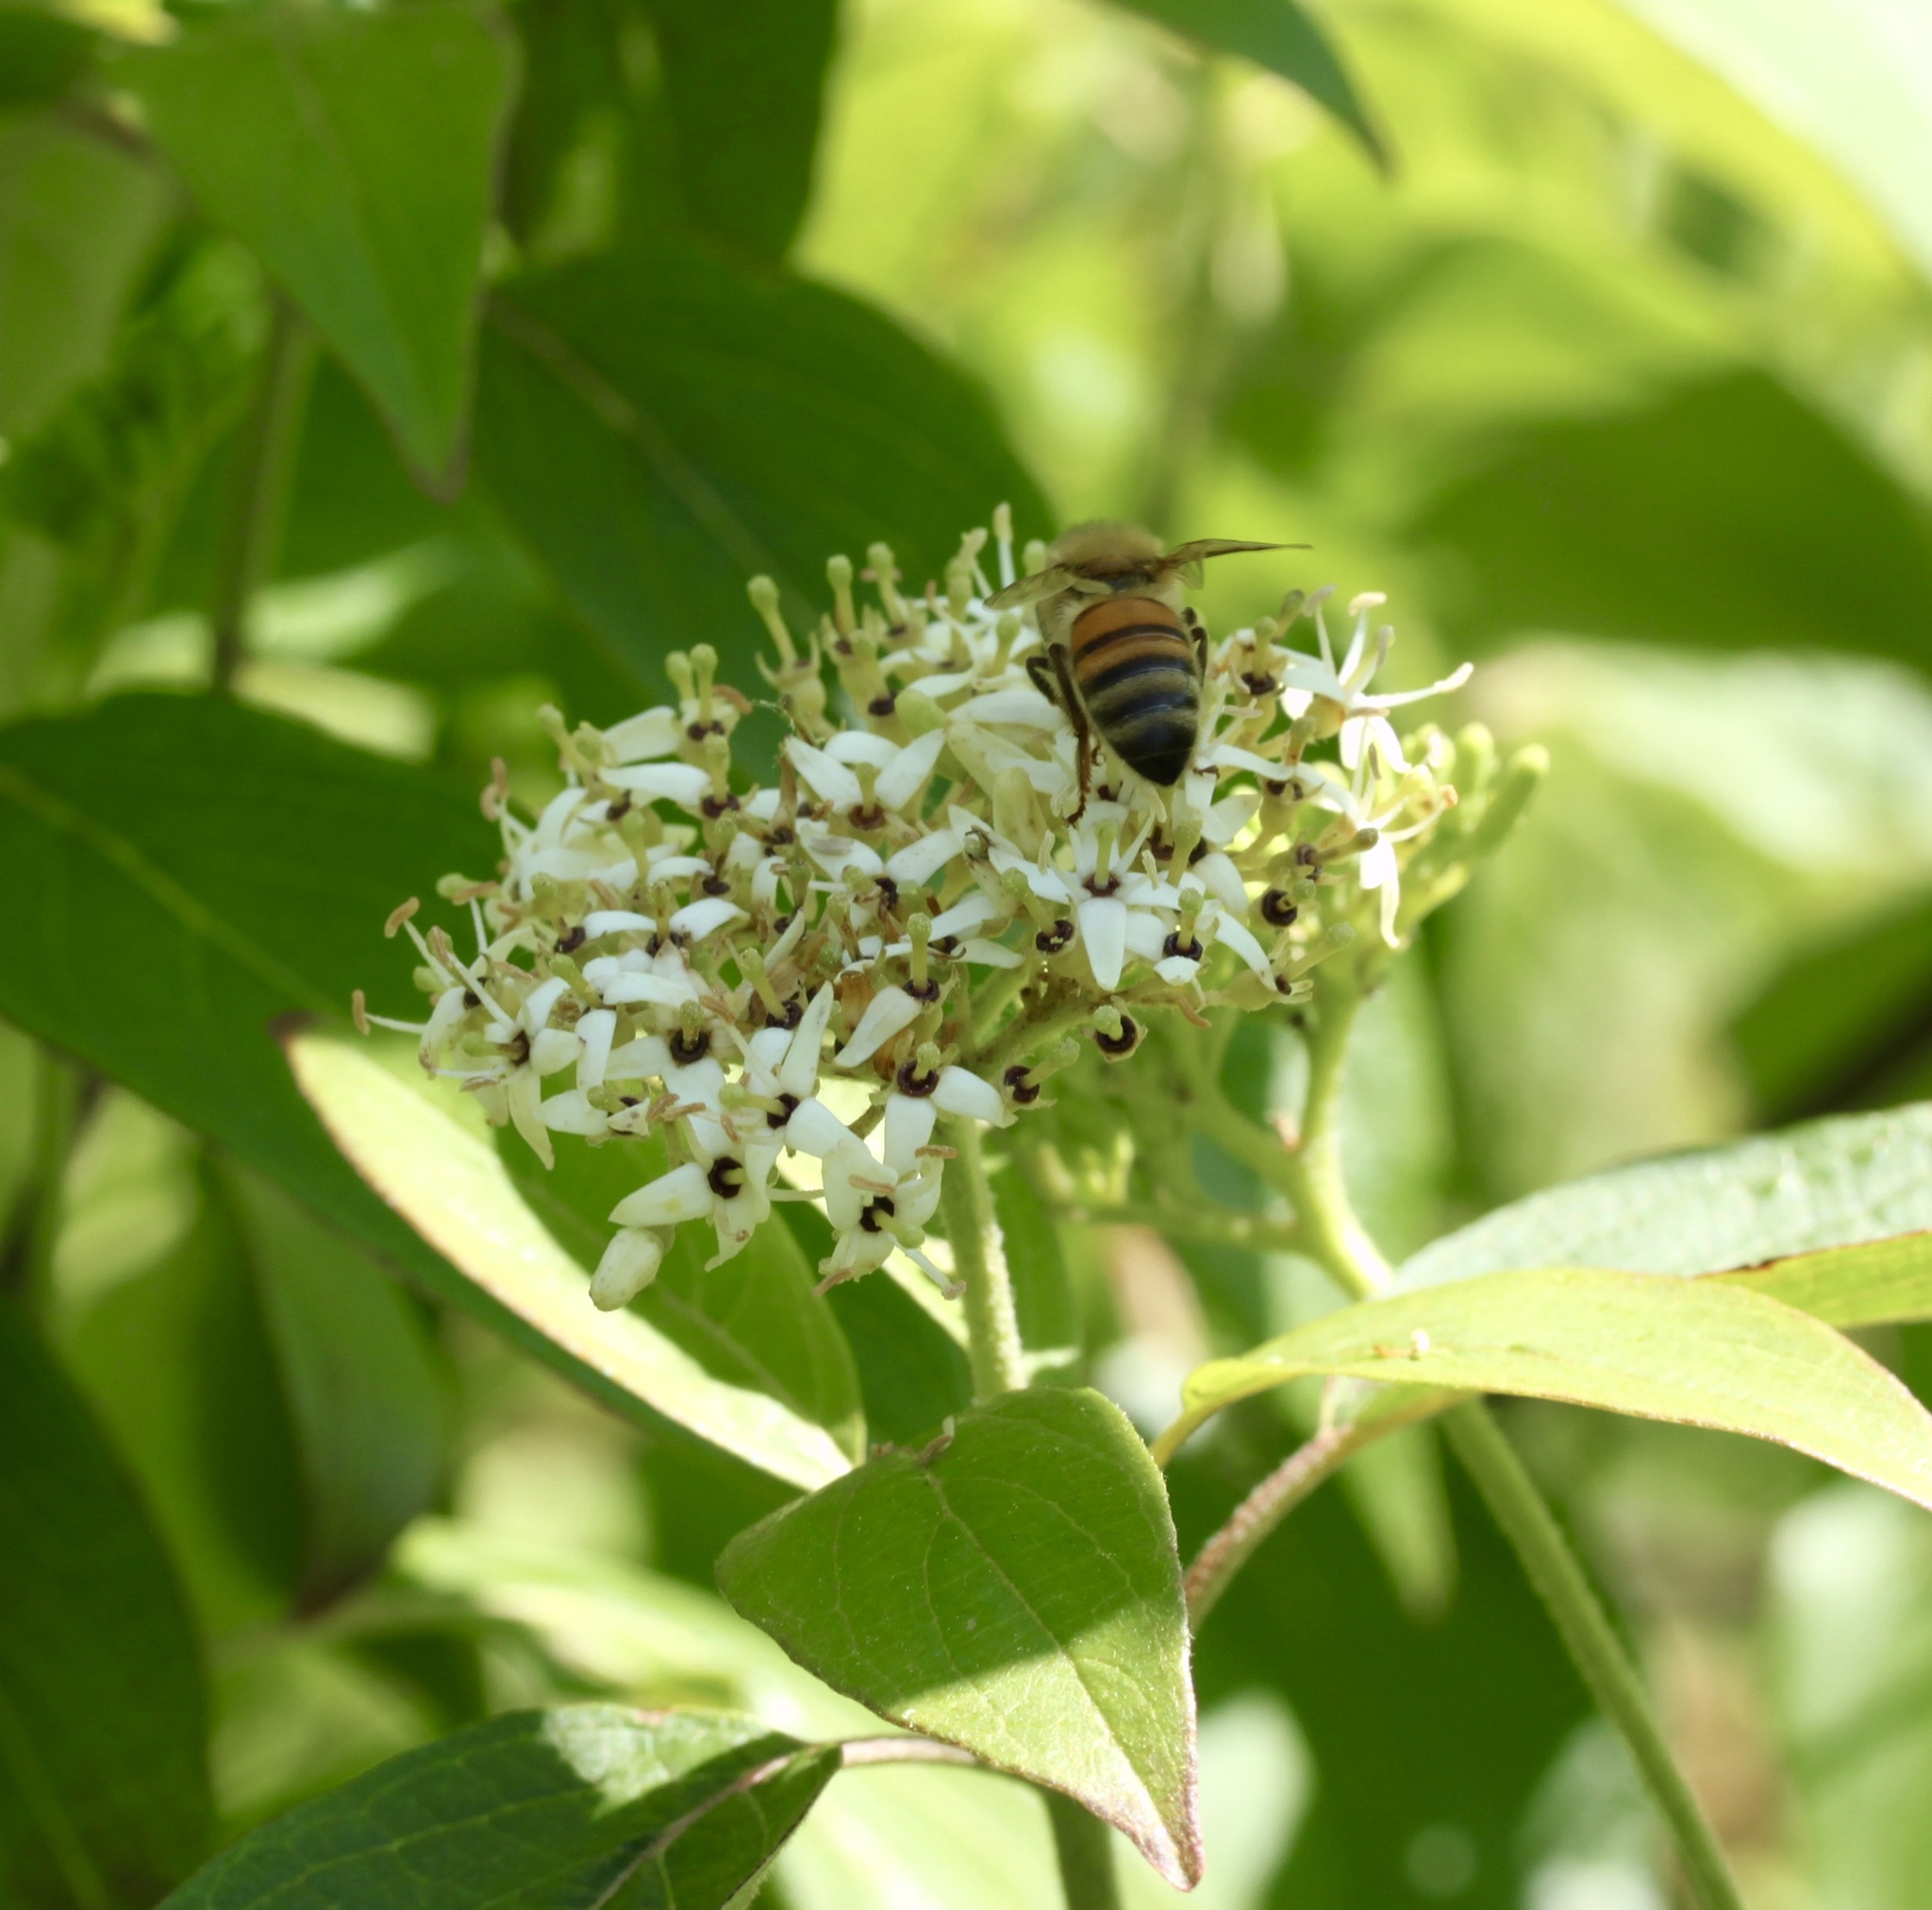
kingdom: Animalia
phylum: Arthropoda
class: Insecta
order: Hymenoptera
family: Apidae
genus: Apis
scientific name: Apis mellifera
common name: Honey bee
